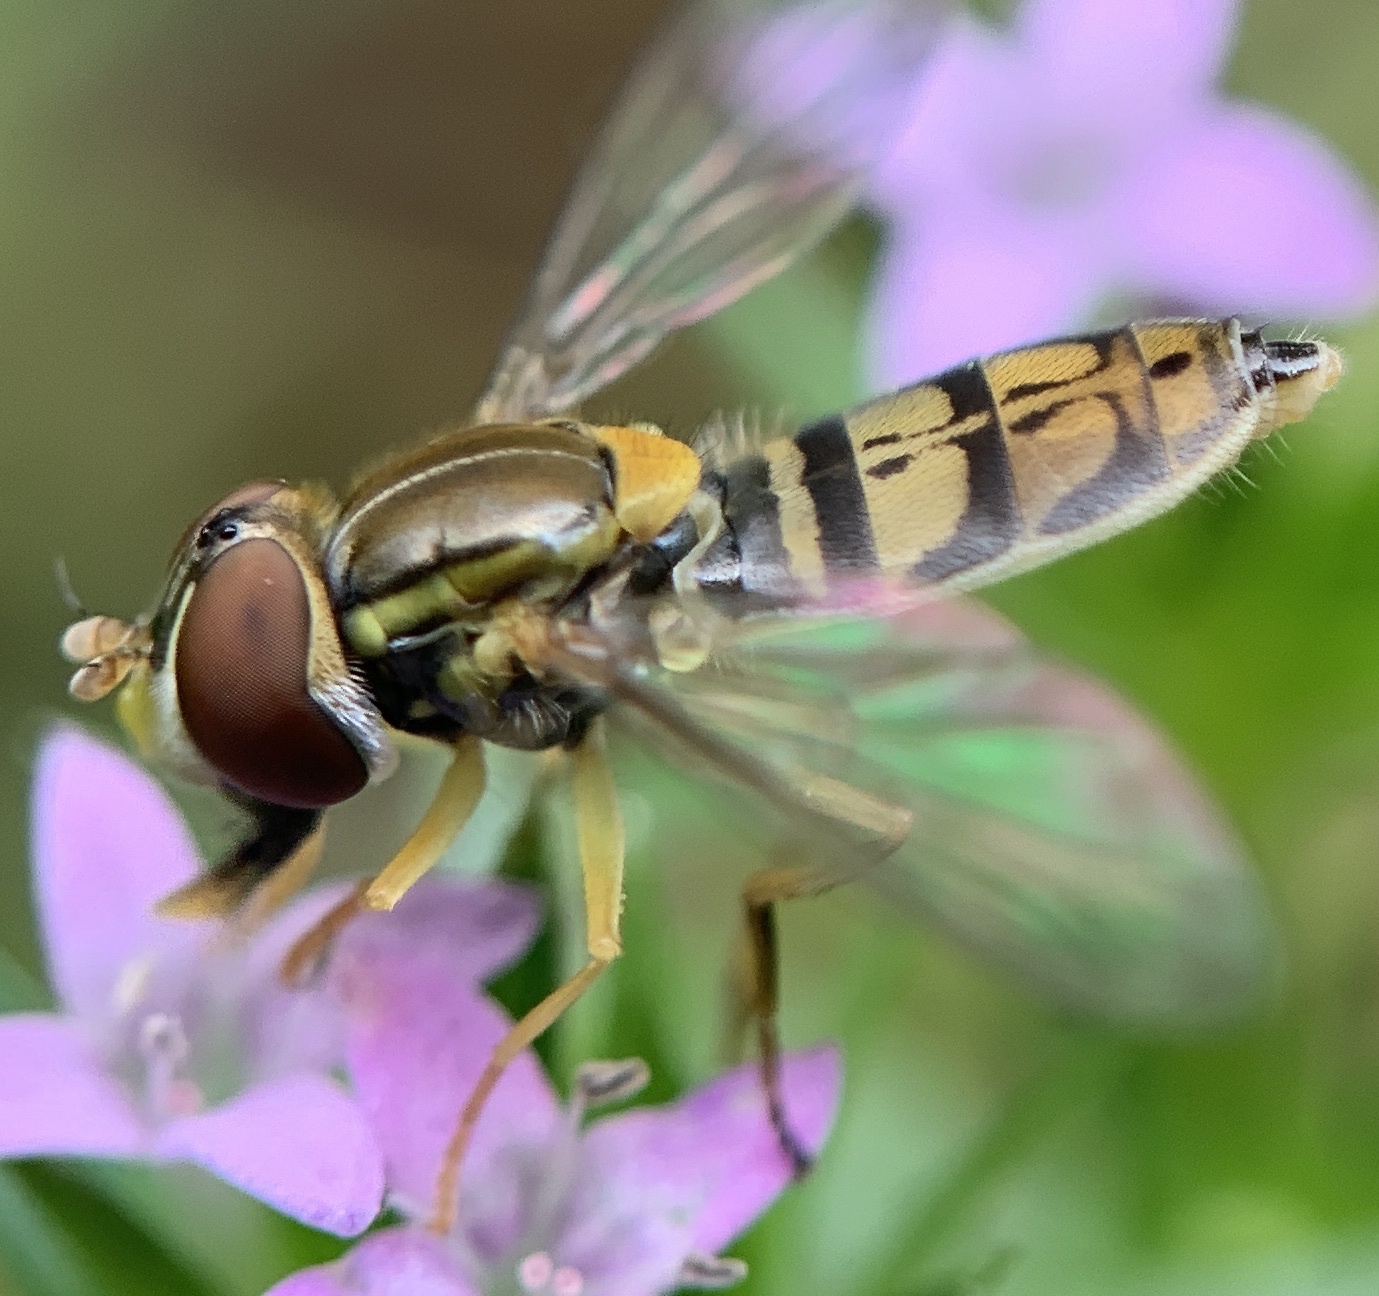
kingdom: Animalia
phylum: Arthropoda
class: Insecta
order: Diptera
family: Syrphidae
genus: Toxomerus
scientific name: Toxomerus marginatus
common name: Syrphid fly
